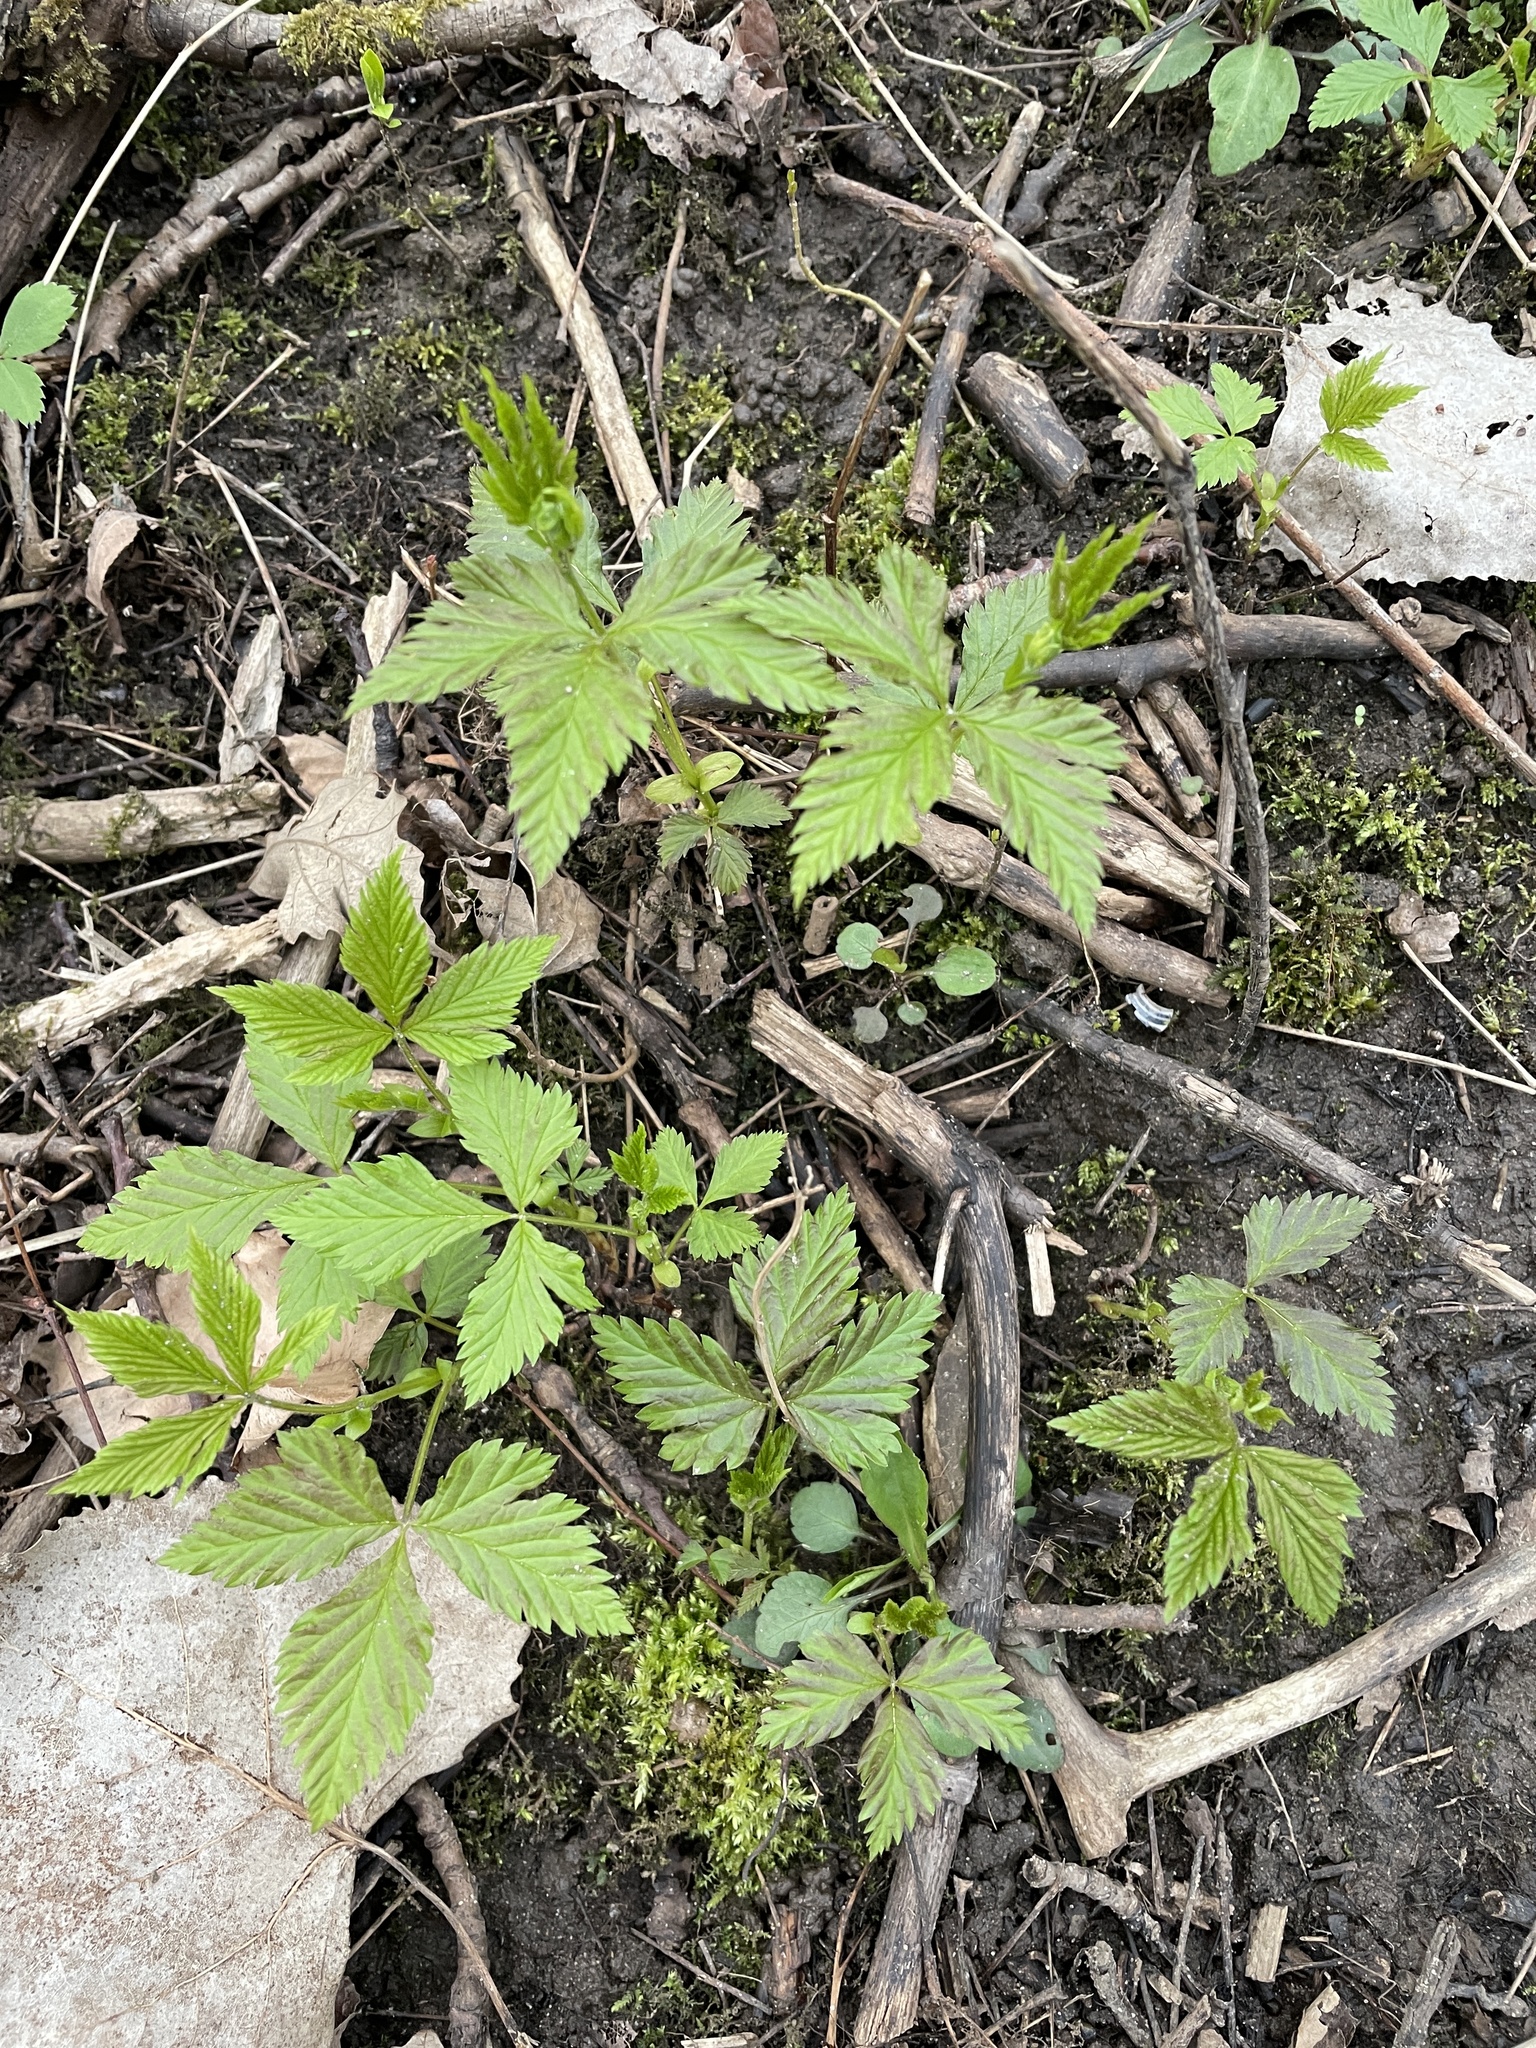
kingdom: Plantae
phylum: Tracheophyta
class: Magnoliopsida
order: Rosales
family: Rosaceae
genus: Rubus
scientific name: Rubus pubescens
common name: Dwarf raspberry
